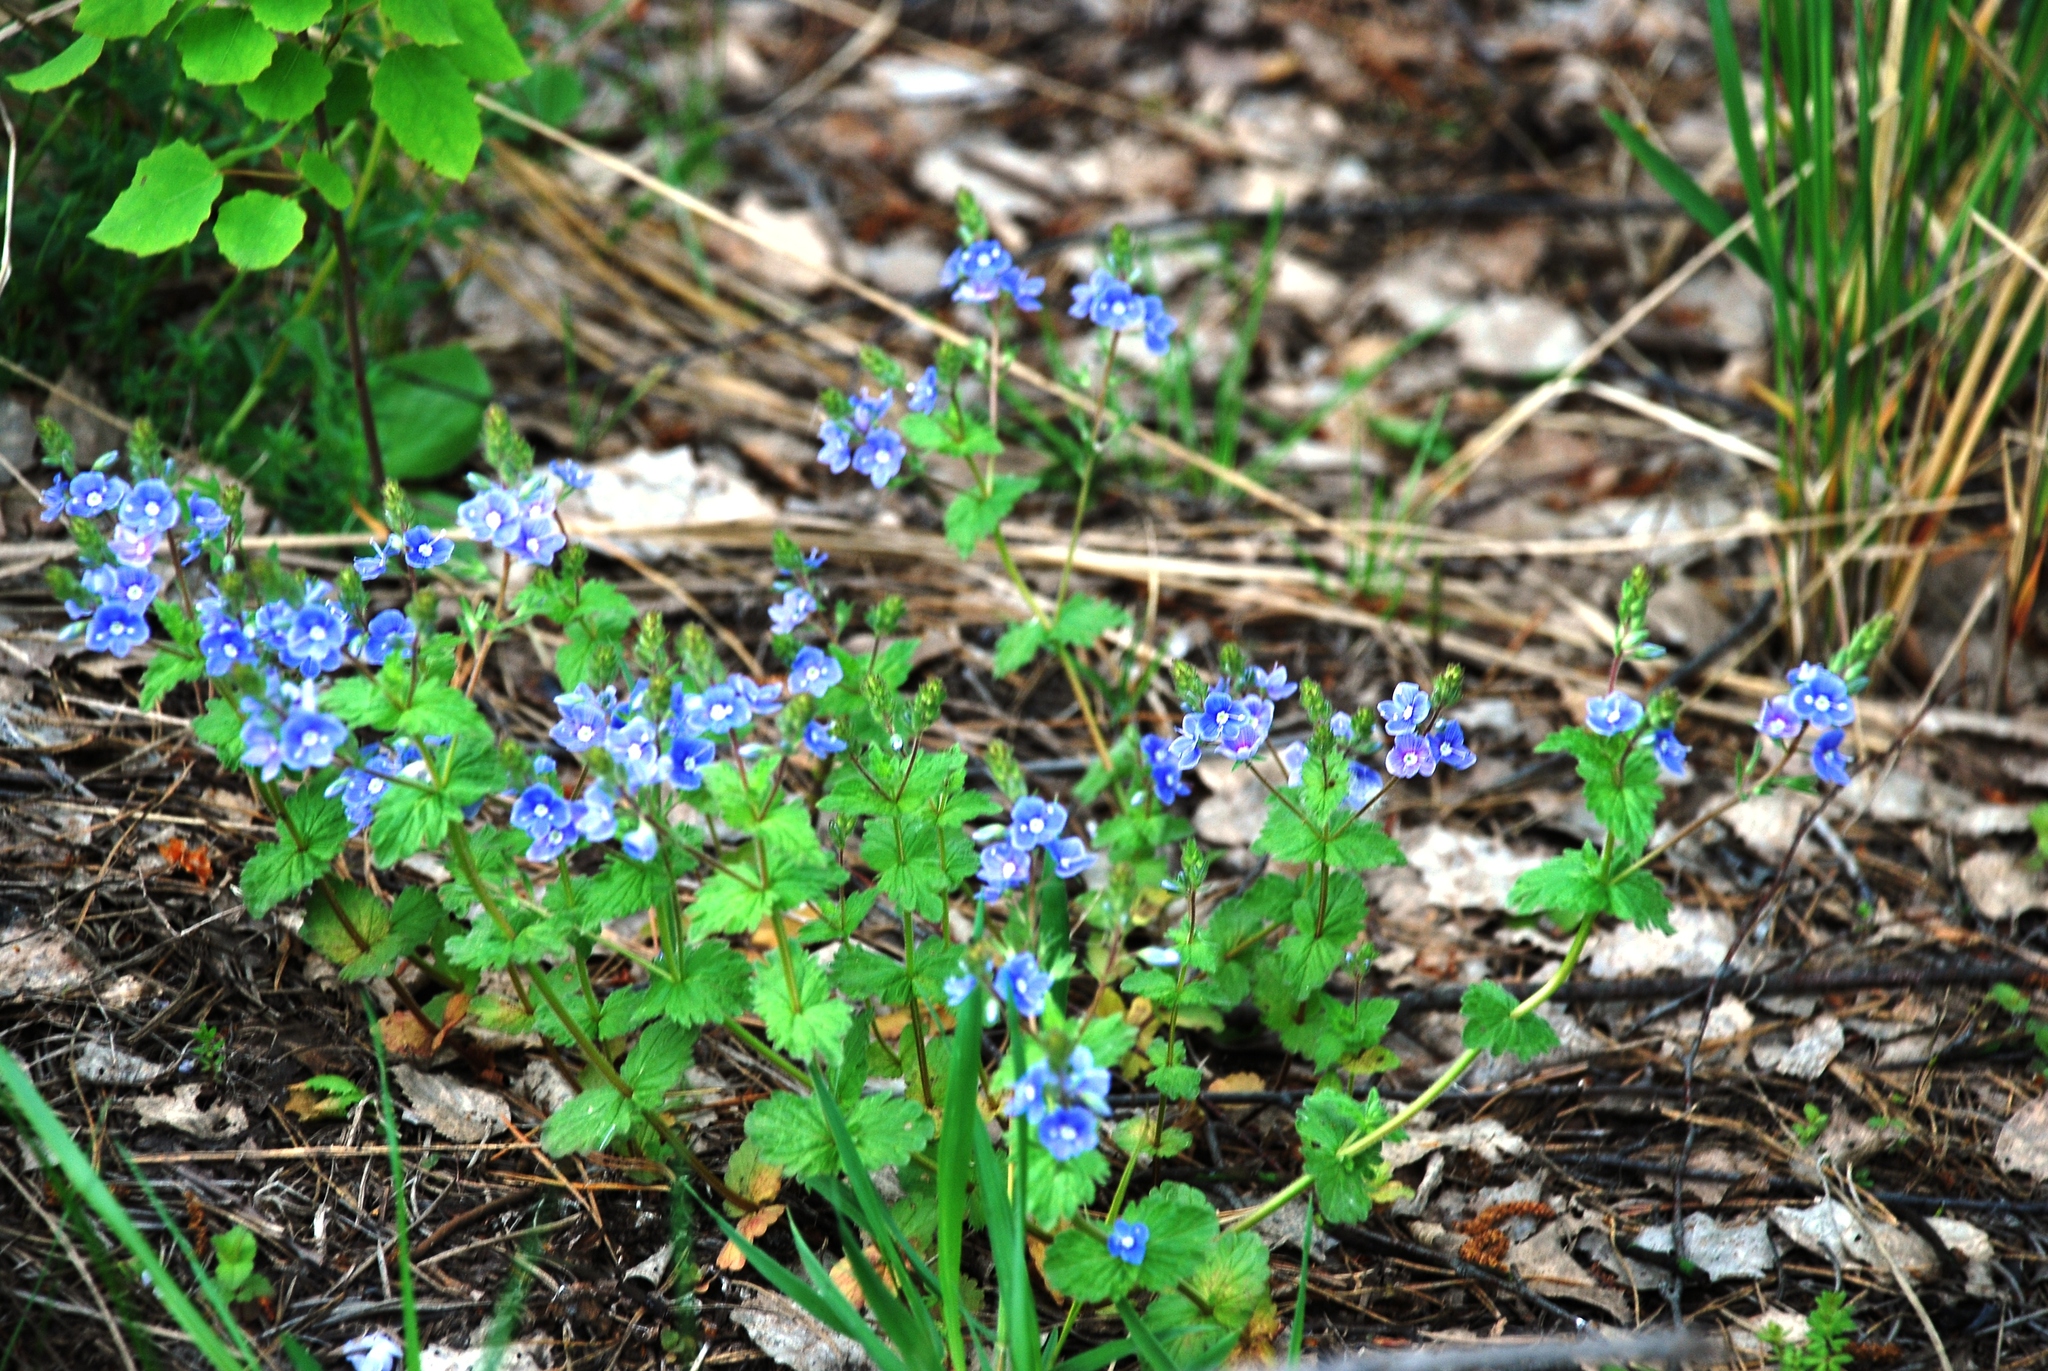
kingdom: Plantae
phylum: Tracheophyta
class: Magnoliopsida
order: Lamiales
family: Plantaginaceae
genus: Veronica
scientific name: Veronica chamaedrys
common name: Germander speedwell
